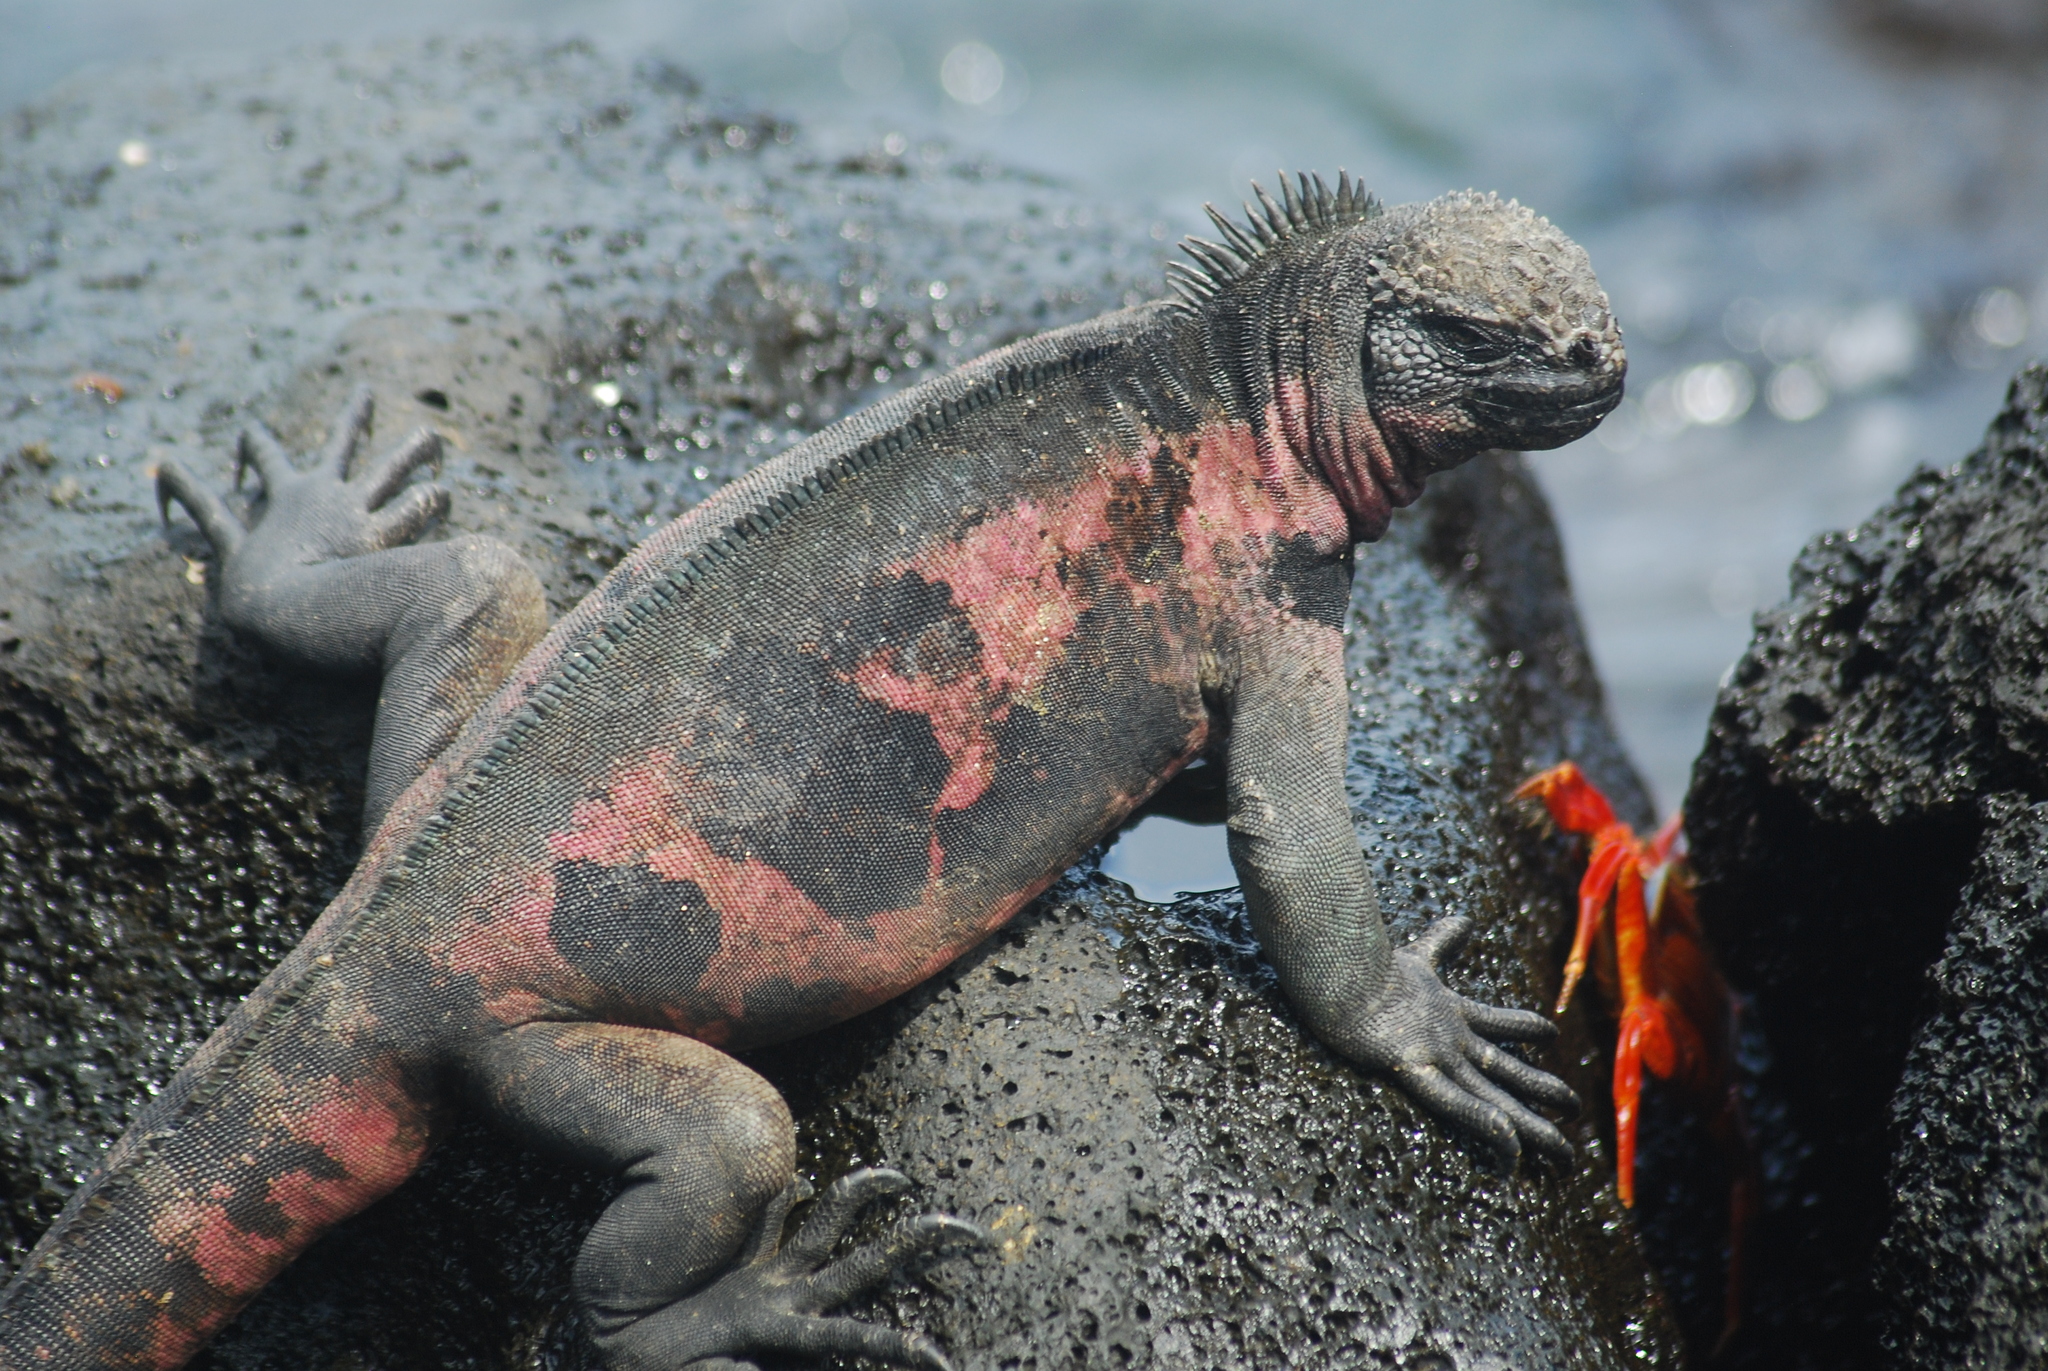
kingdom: Animalia
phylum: Chordata
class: Squamata
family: Iguanidae
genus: Amblyrhynchus
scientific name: Amblyrhynchus cristatus
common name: Marine iguana
